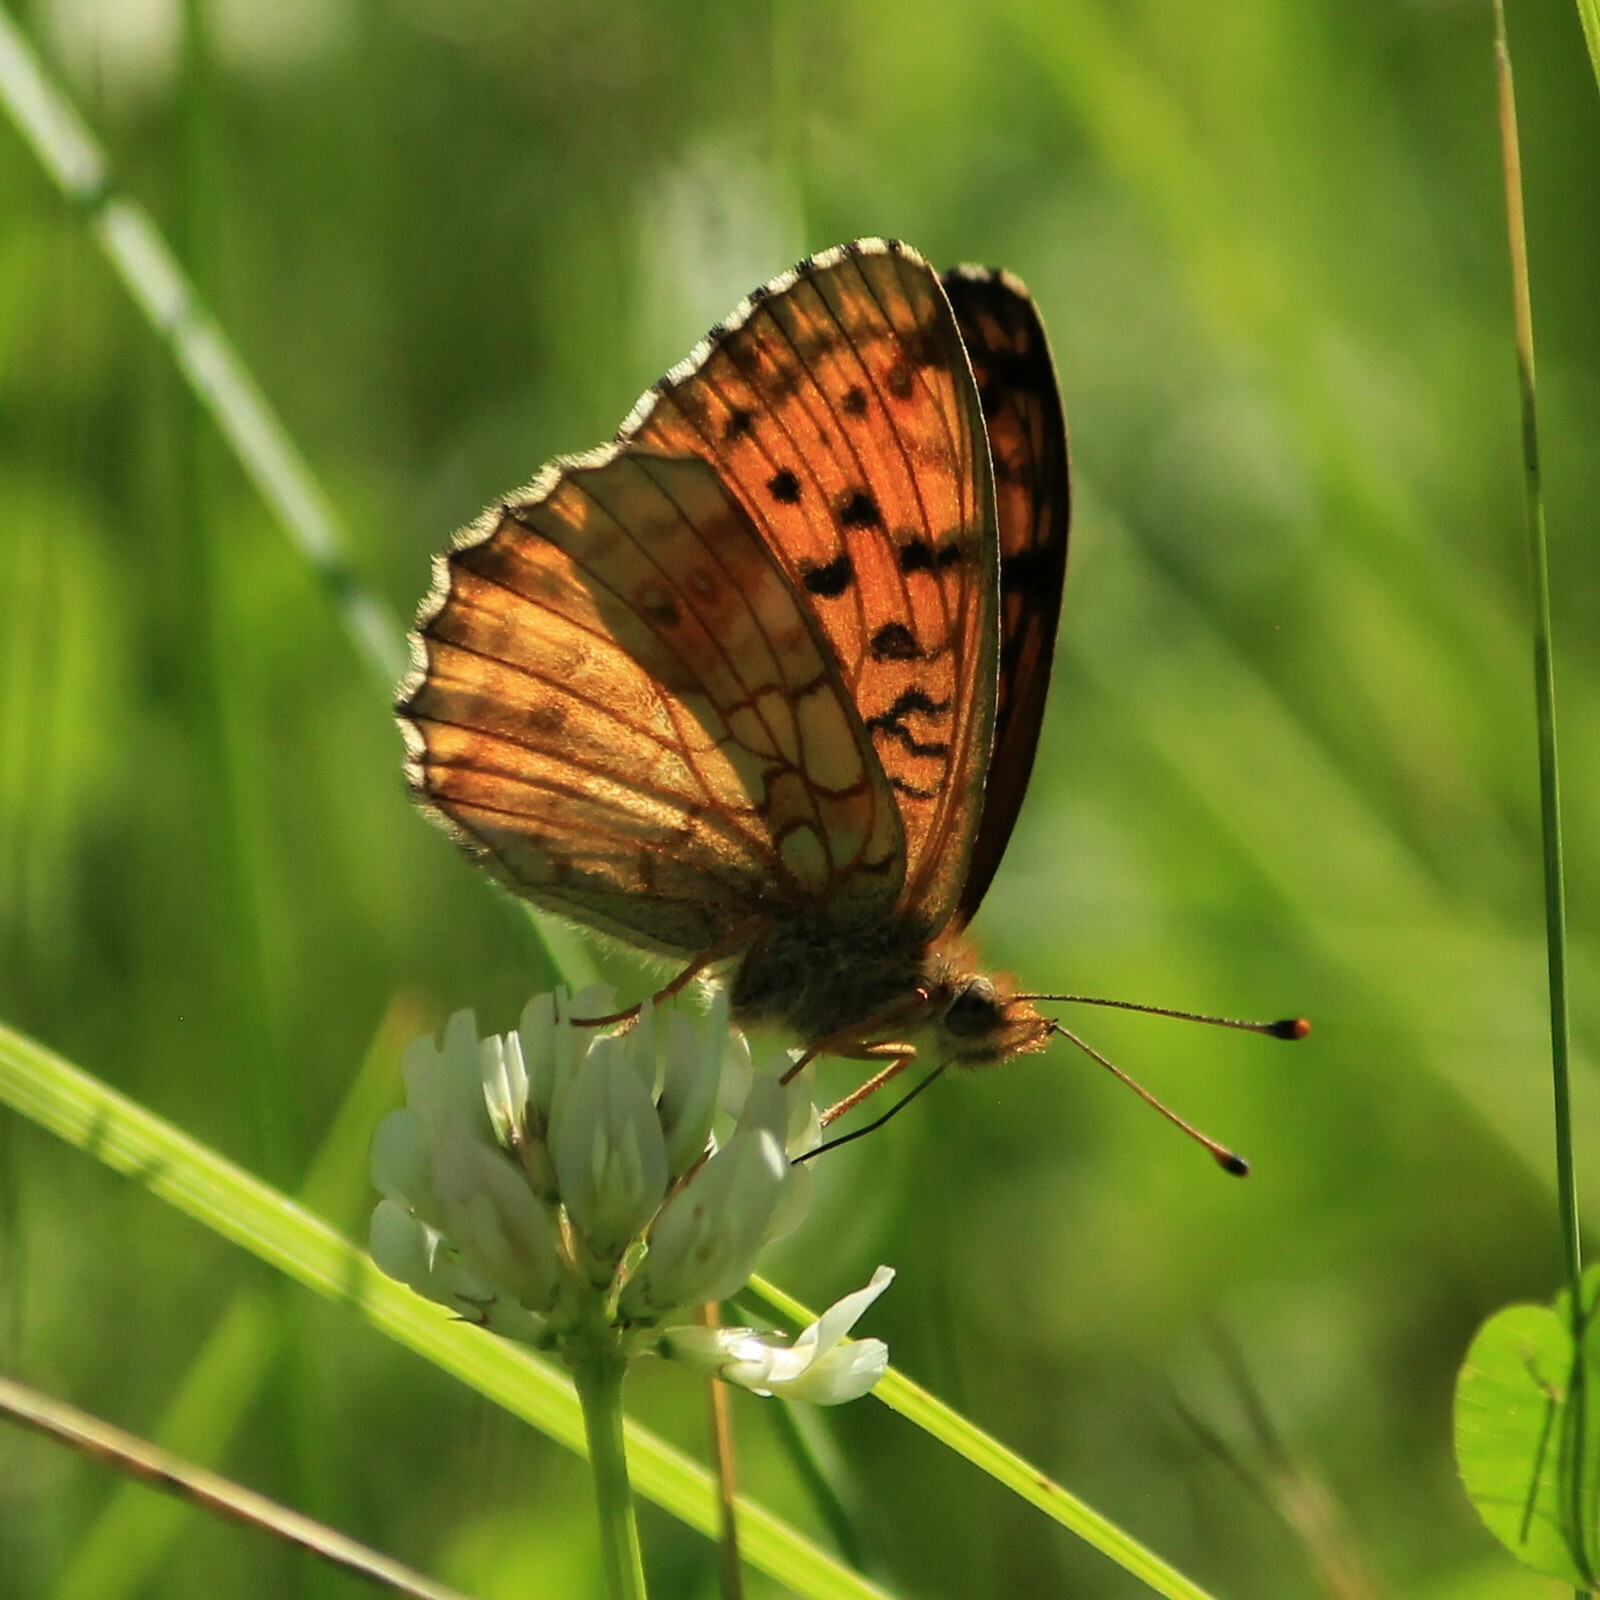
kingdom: Animalia
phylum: Arthropoda
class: Insecta
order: Lepidoptera
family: Nymphalidae
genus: Brenthis
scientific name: Brenthis ino
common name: Lesser marbled fritillary
